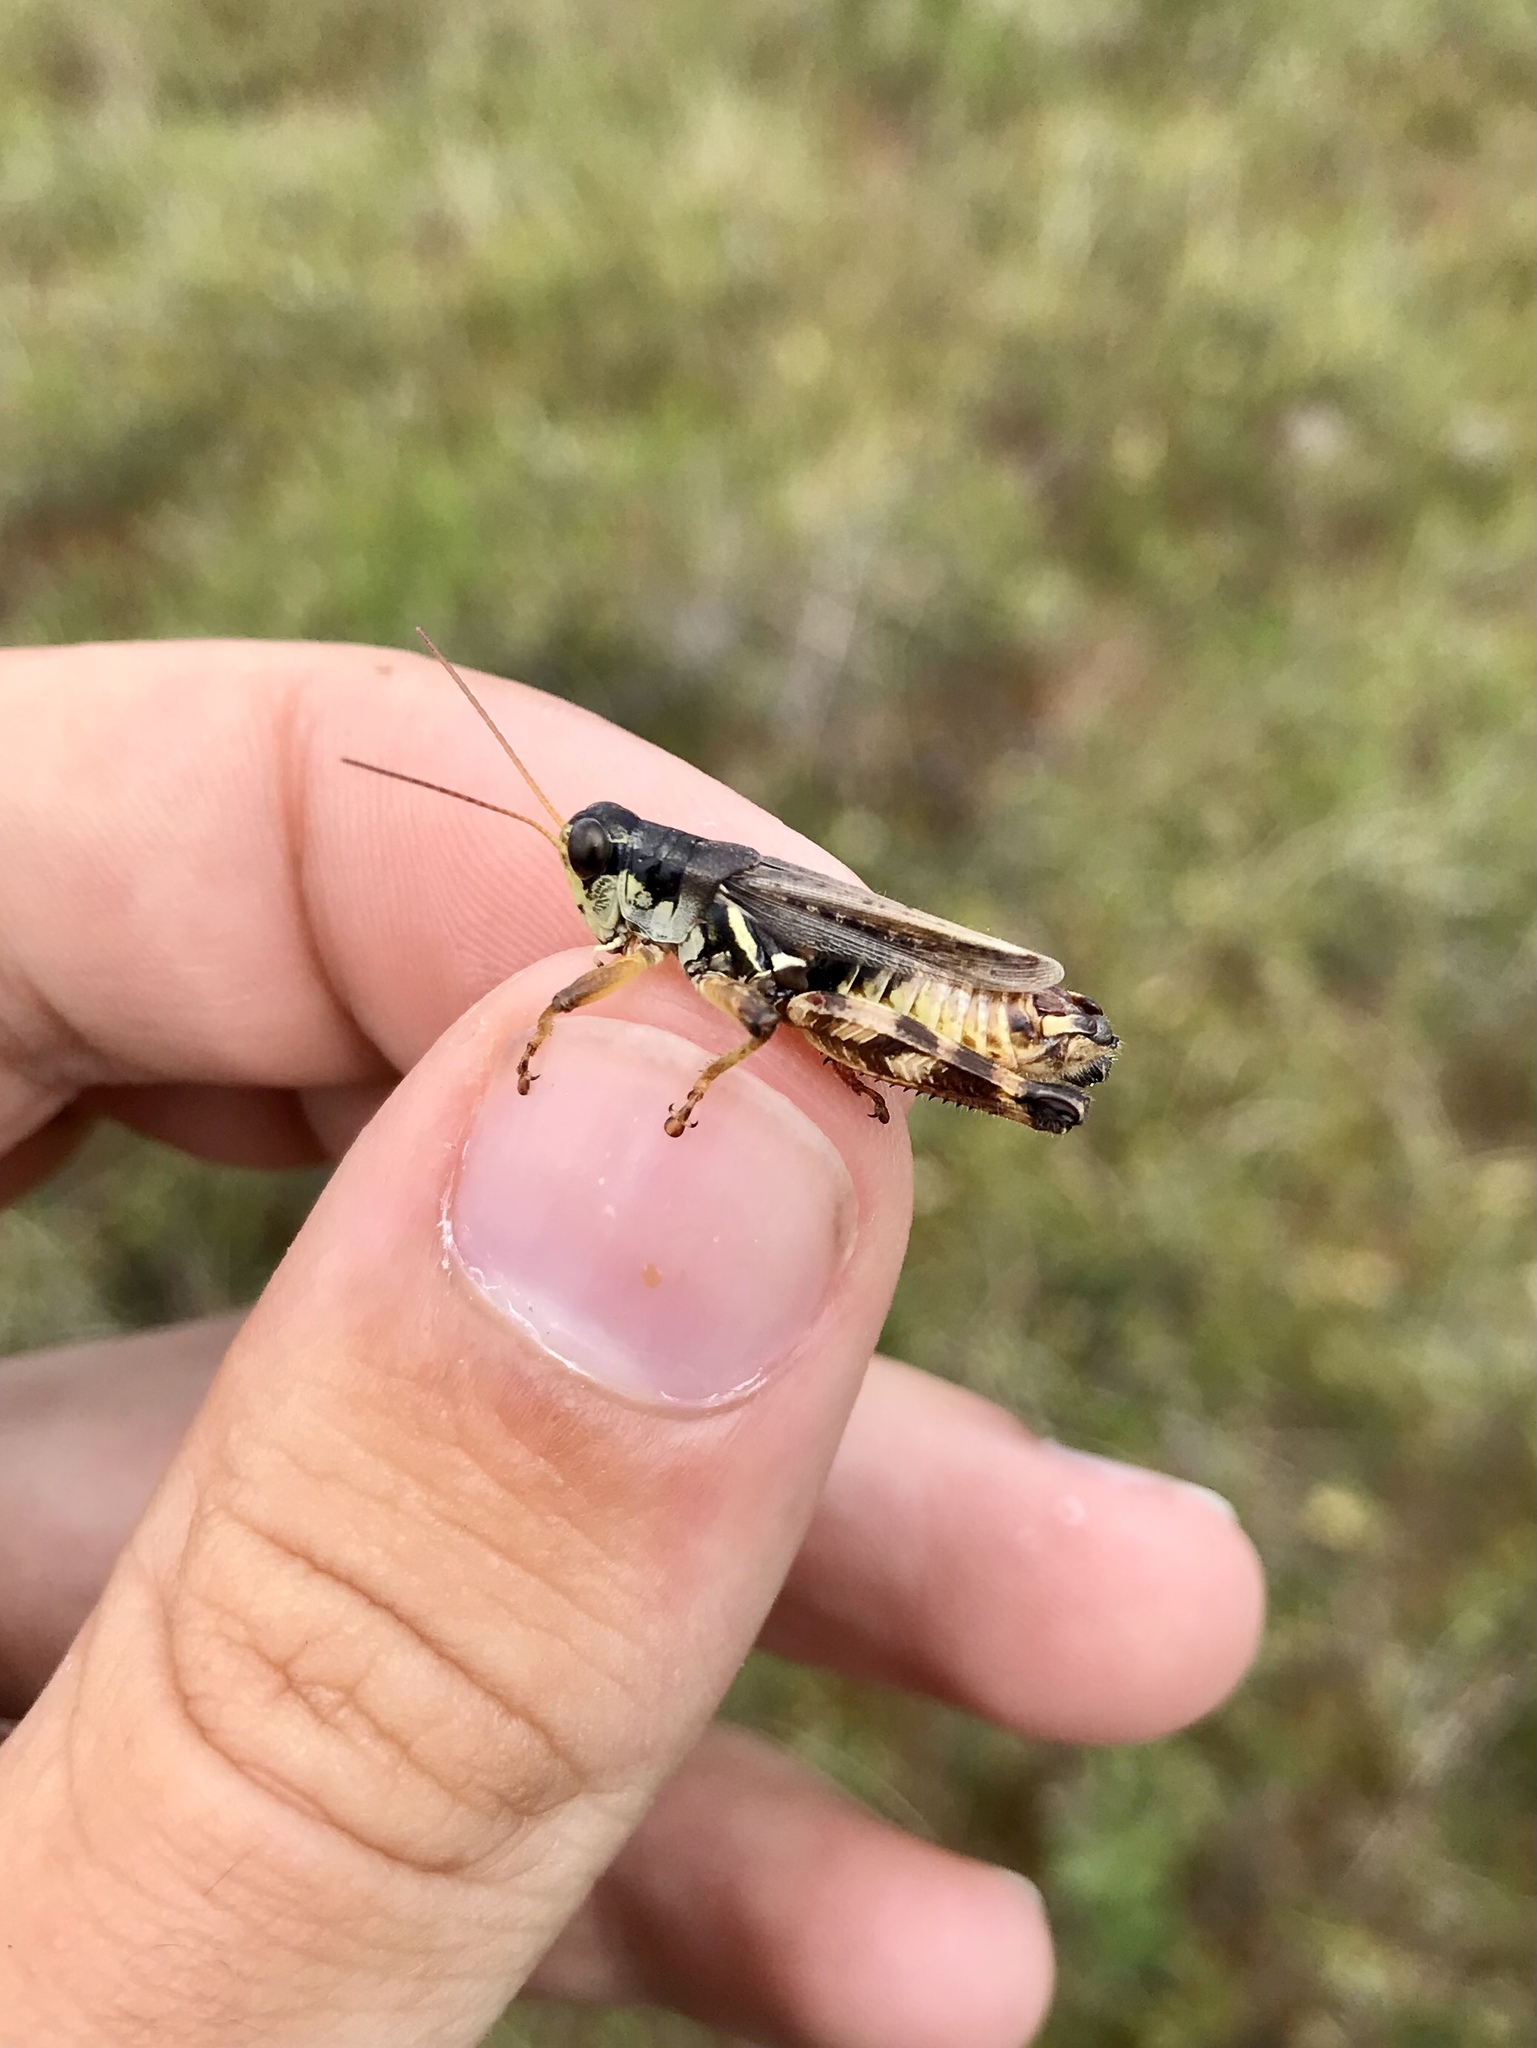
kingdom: Animalia
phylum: Arthropoda
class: Insecta
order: Orthoptera
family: Acrididae
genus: Melanoplus
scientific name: Melanoplus fasciatus
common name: Huckleberry locust
